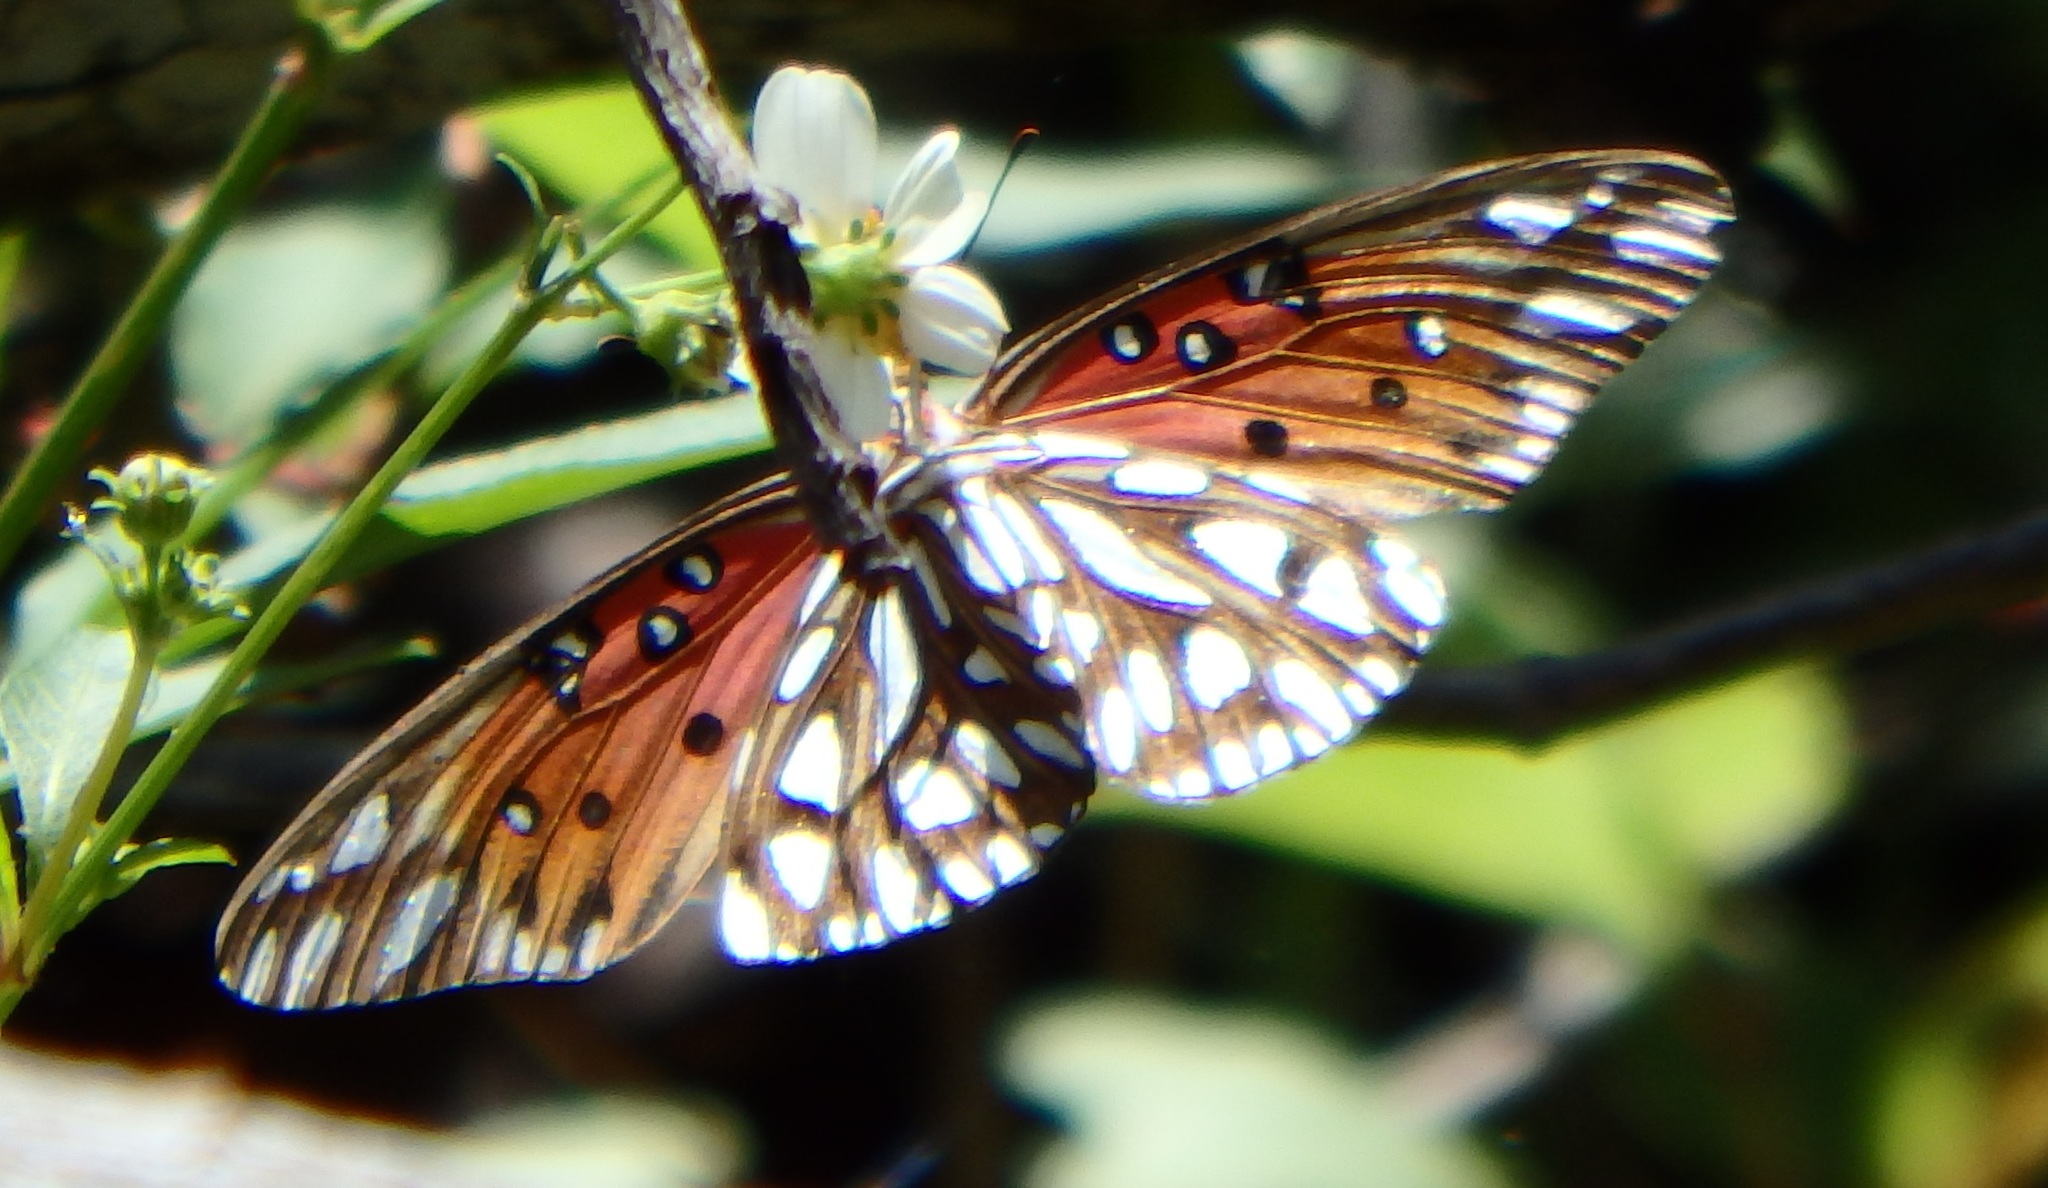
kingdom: Animalia
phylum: Arthropoda
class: Insecta
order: Lepidoptera
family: Nymphalidae
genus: Dione
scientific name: Dione vanillae
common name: Gulf fritillary
